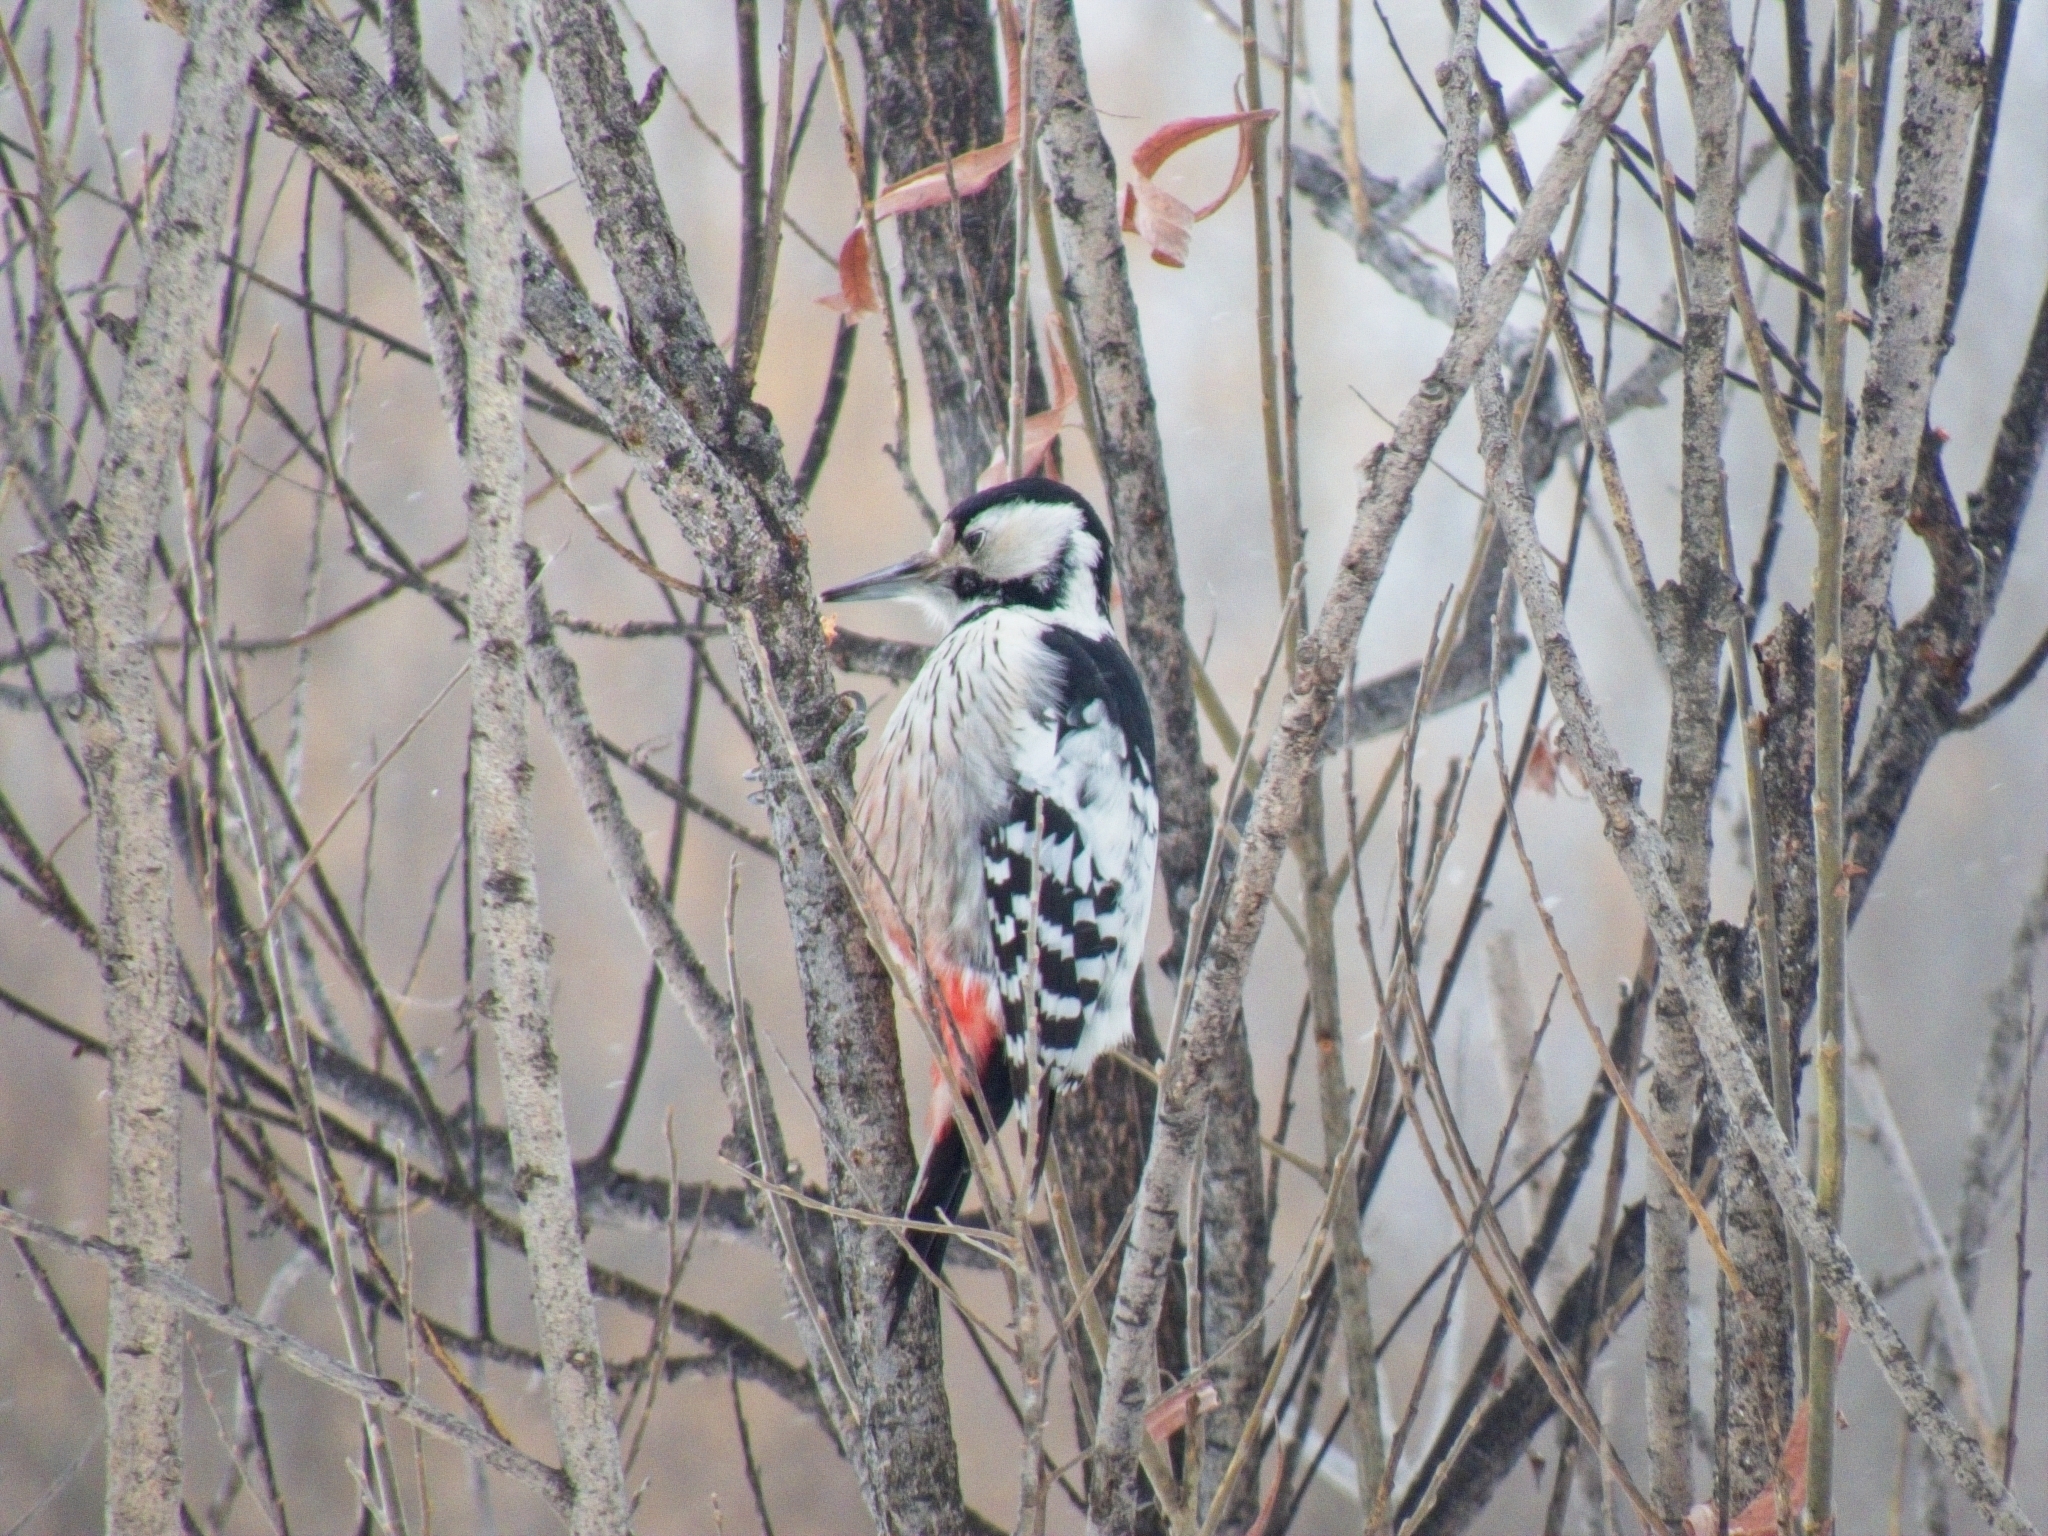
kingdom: Animalia
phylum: Chordata
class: Aves
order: Piciformes
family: Picidae
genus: Dendrocopos
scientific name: Dendrocopos leucotos
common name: White-backed woodpecker
